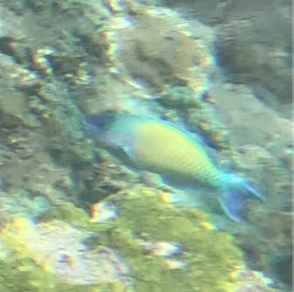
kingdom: Animalia
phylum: Chordata
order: Perciformes
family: Scaridae
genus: Scarus
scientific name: Scarus psittacus
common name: Palenose parrotfish
